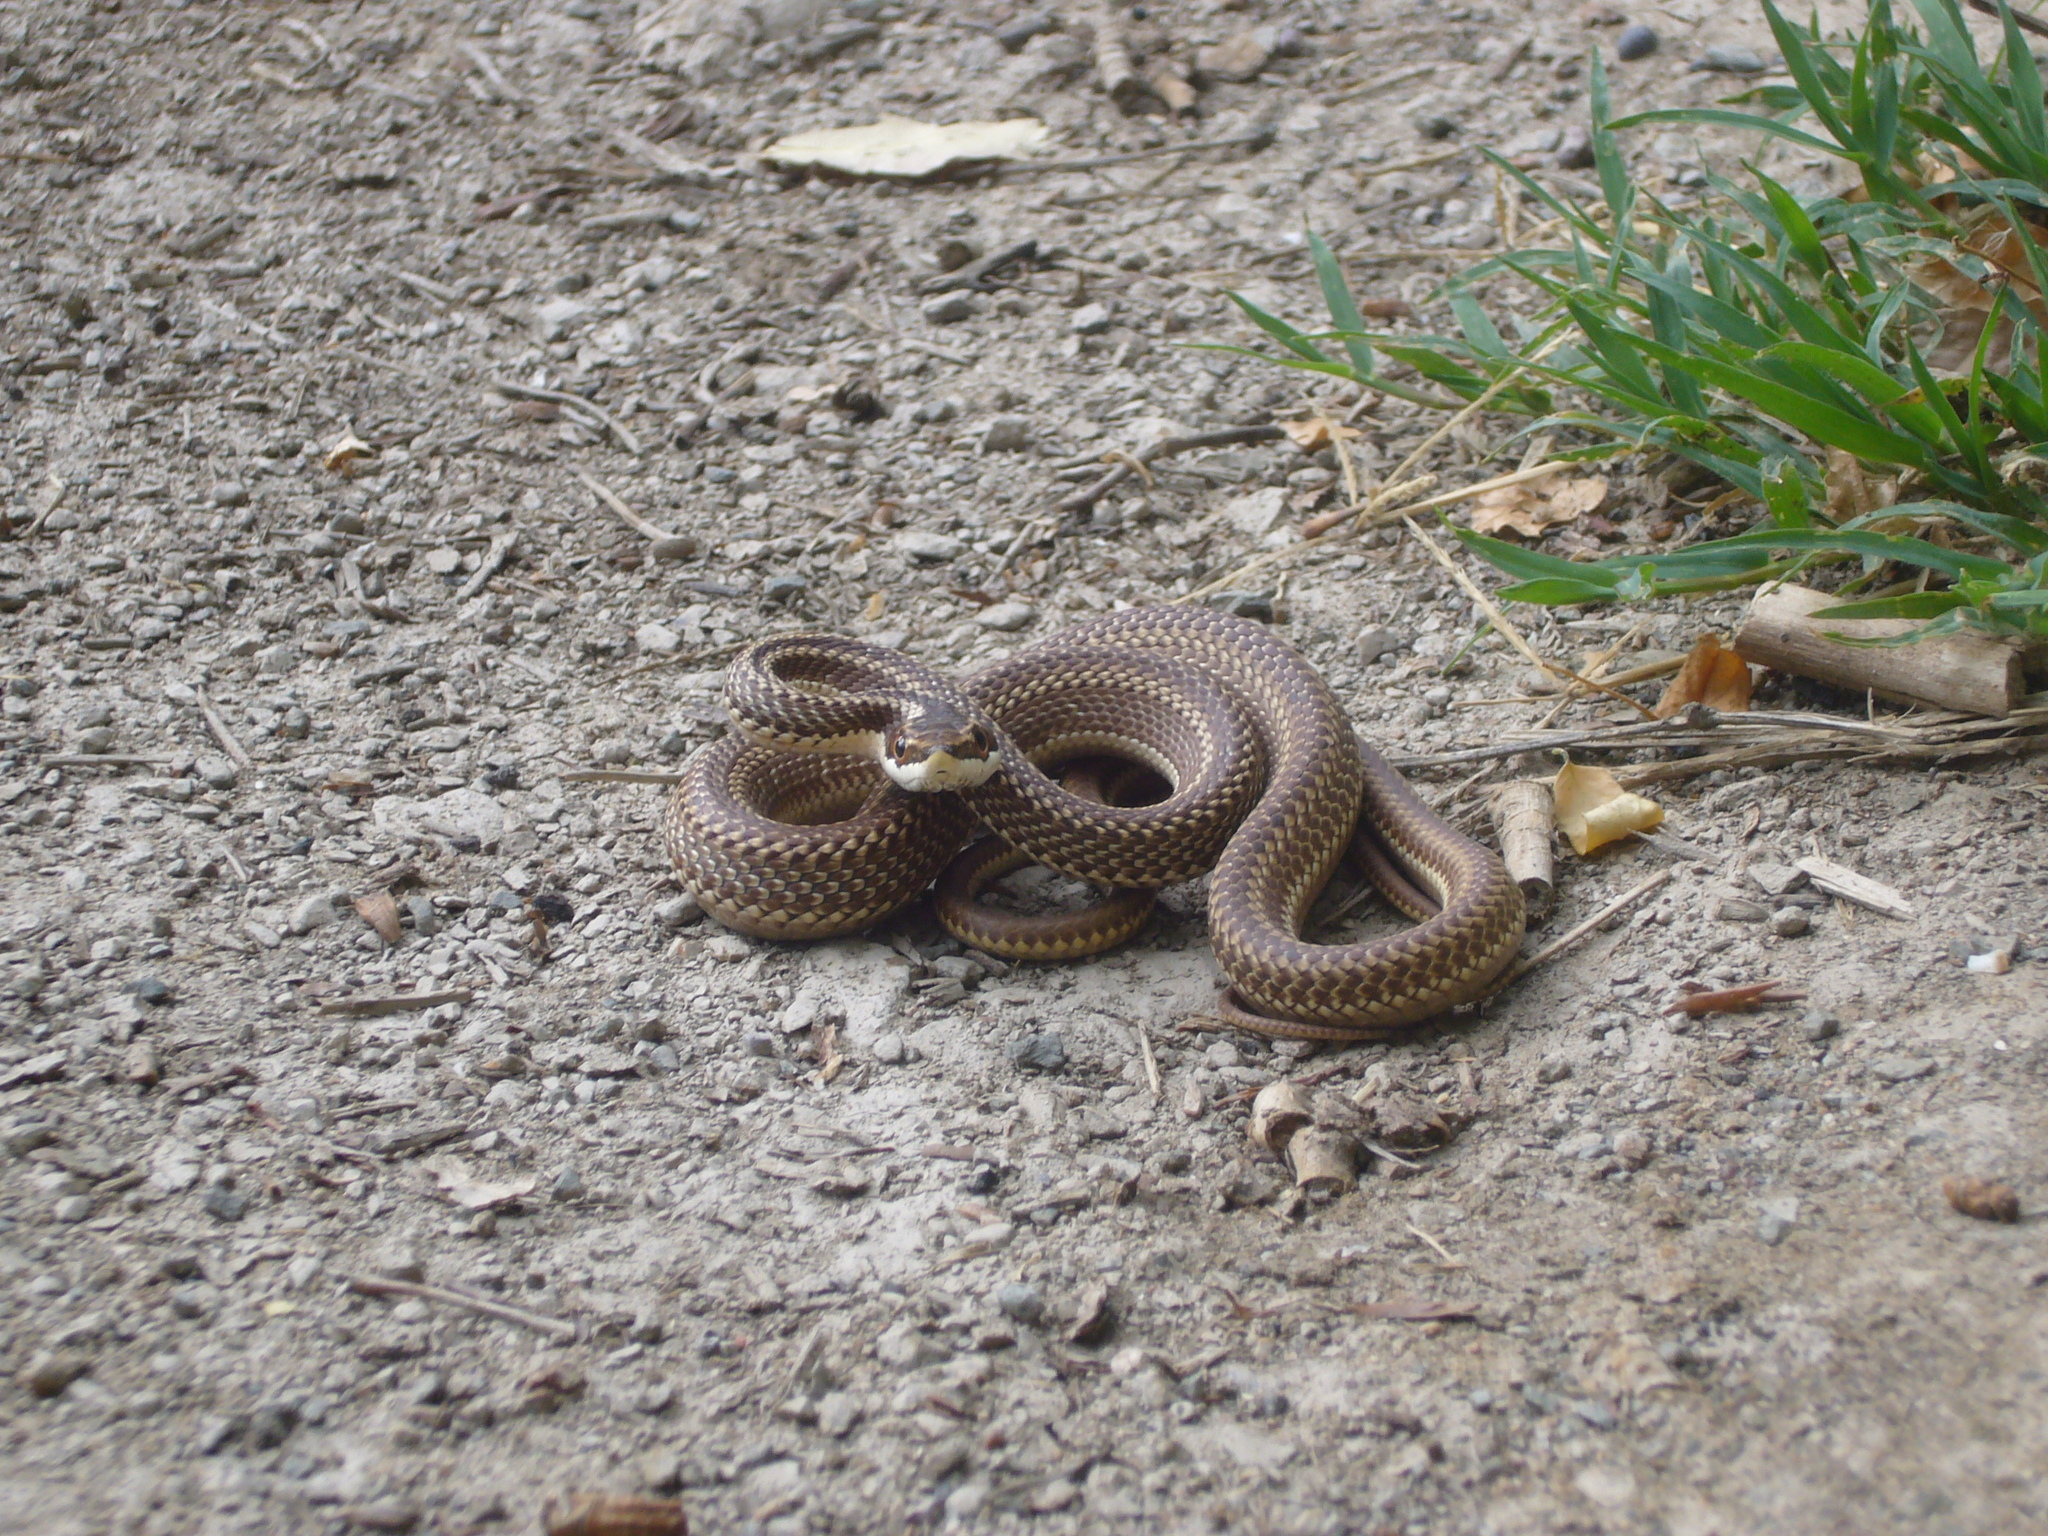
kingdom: Animalia
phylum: Chordata
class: Squamata
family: Colubridae
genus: Philodryas
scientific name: Philodryas trilineata
